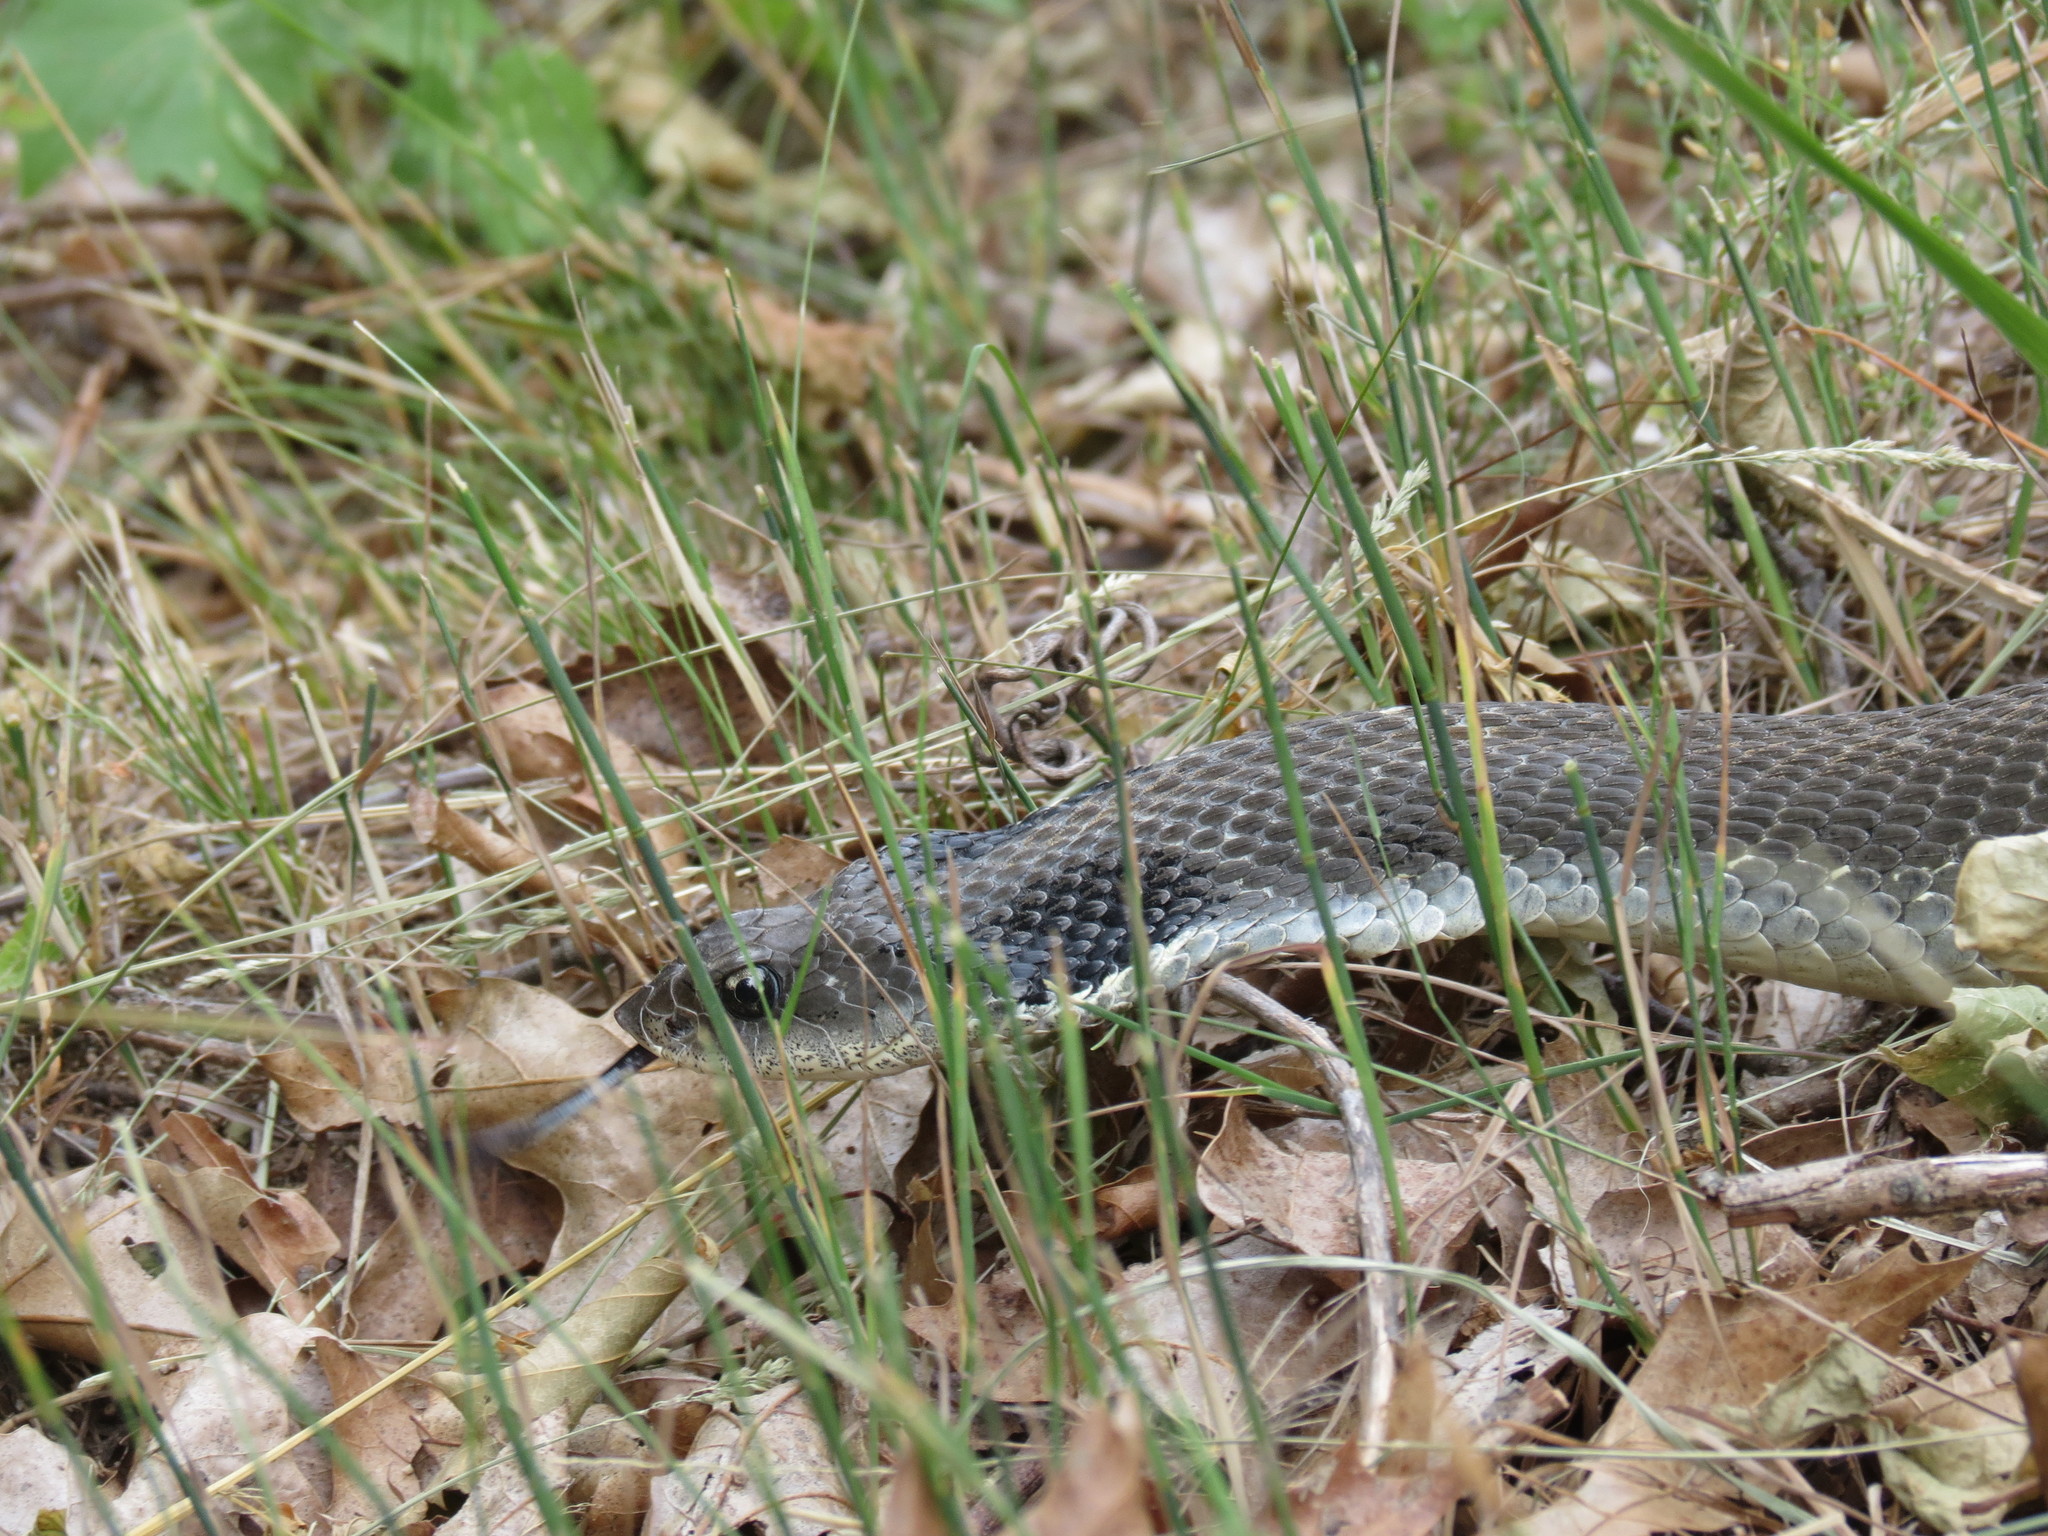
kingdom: Animalia
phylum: Chordata
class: Squamata
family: Colubridae
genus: Heterodon
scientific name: Heterodon platirhinos
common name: Eastern hognose snake
